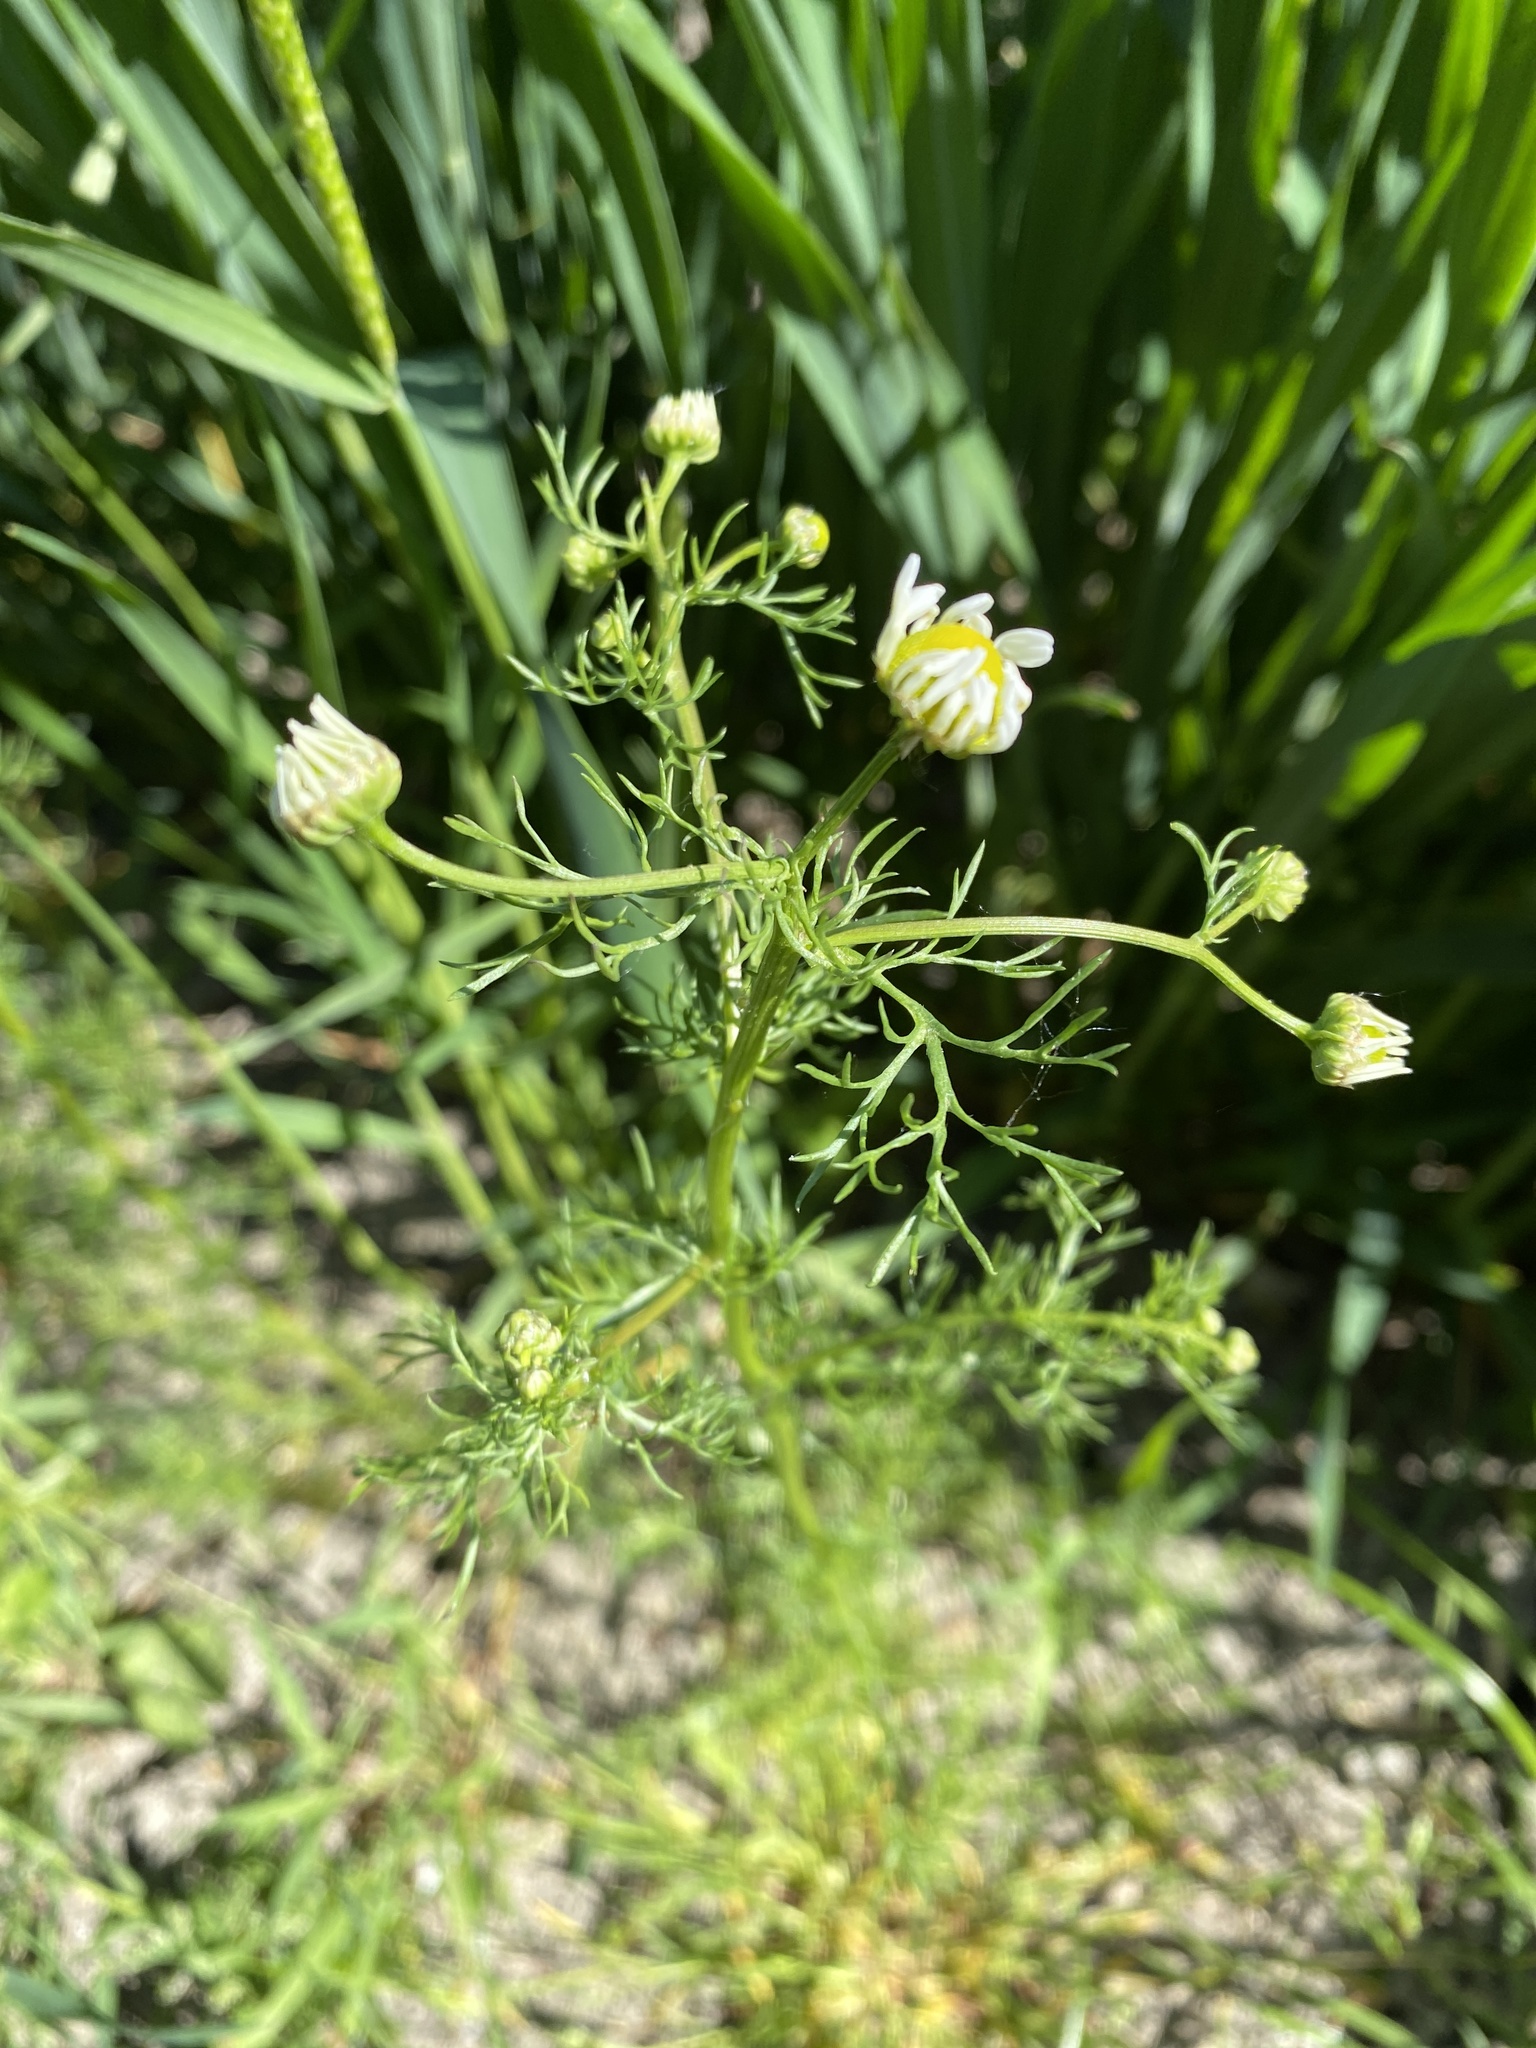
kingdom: Plantae
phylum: Tracheophyta
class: Magnoliopsida
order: Asterales
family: Asteraceae
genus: Tripleurospermum
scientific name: Tripleurospermum inodorum
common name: Scentless mayweed
